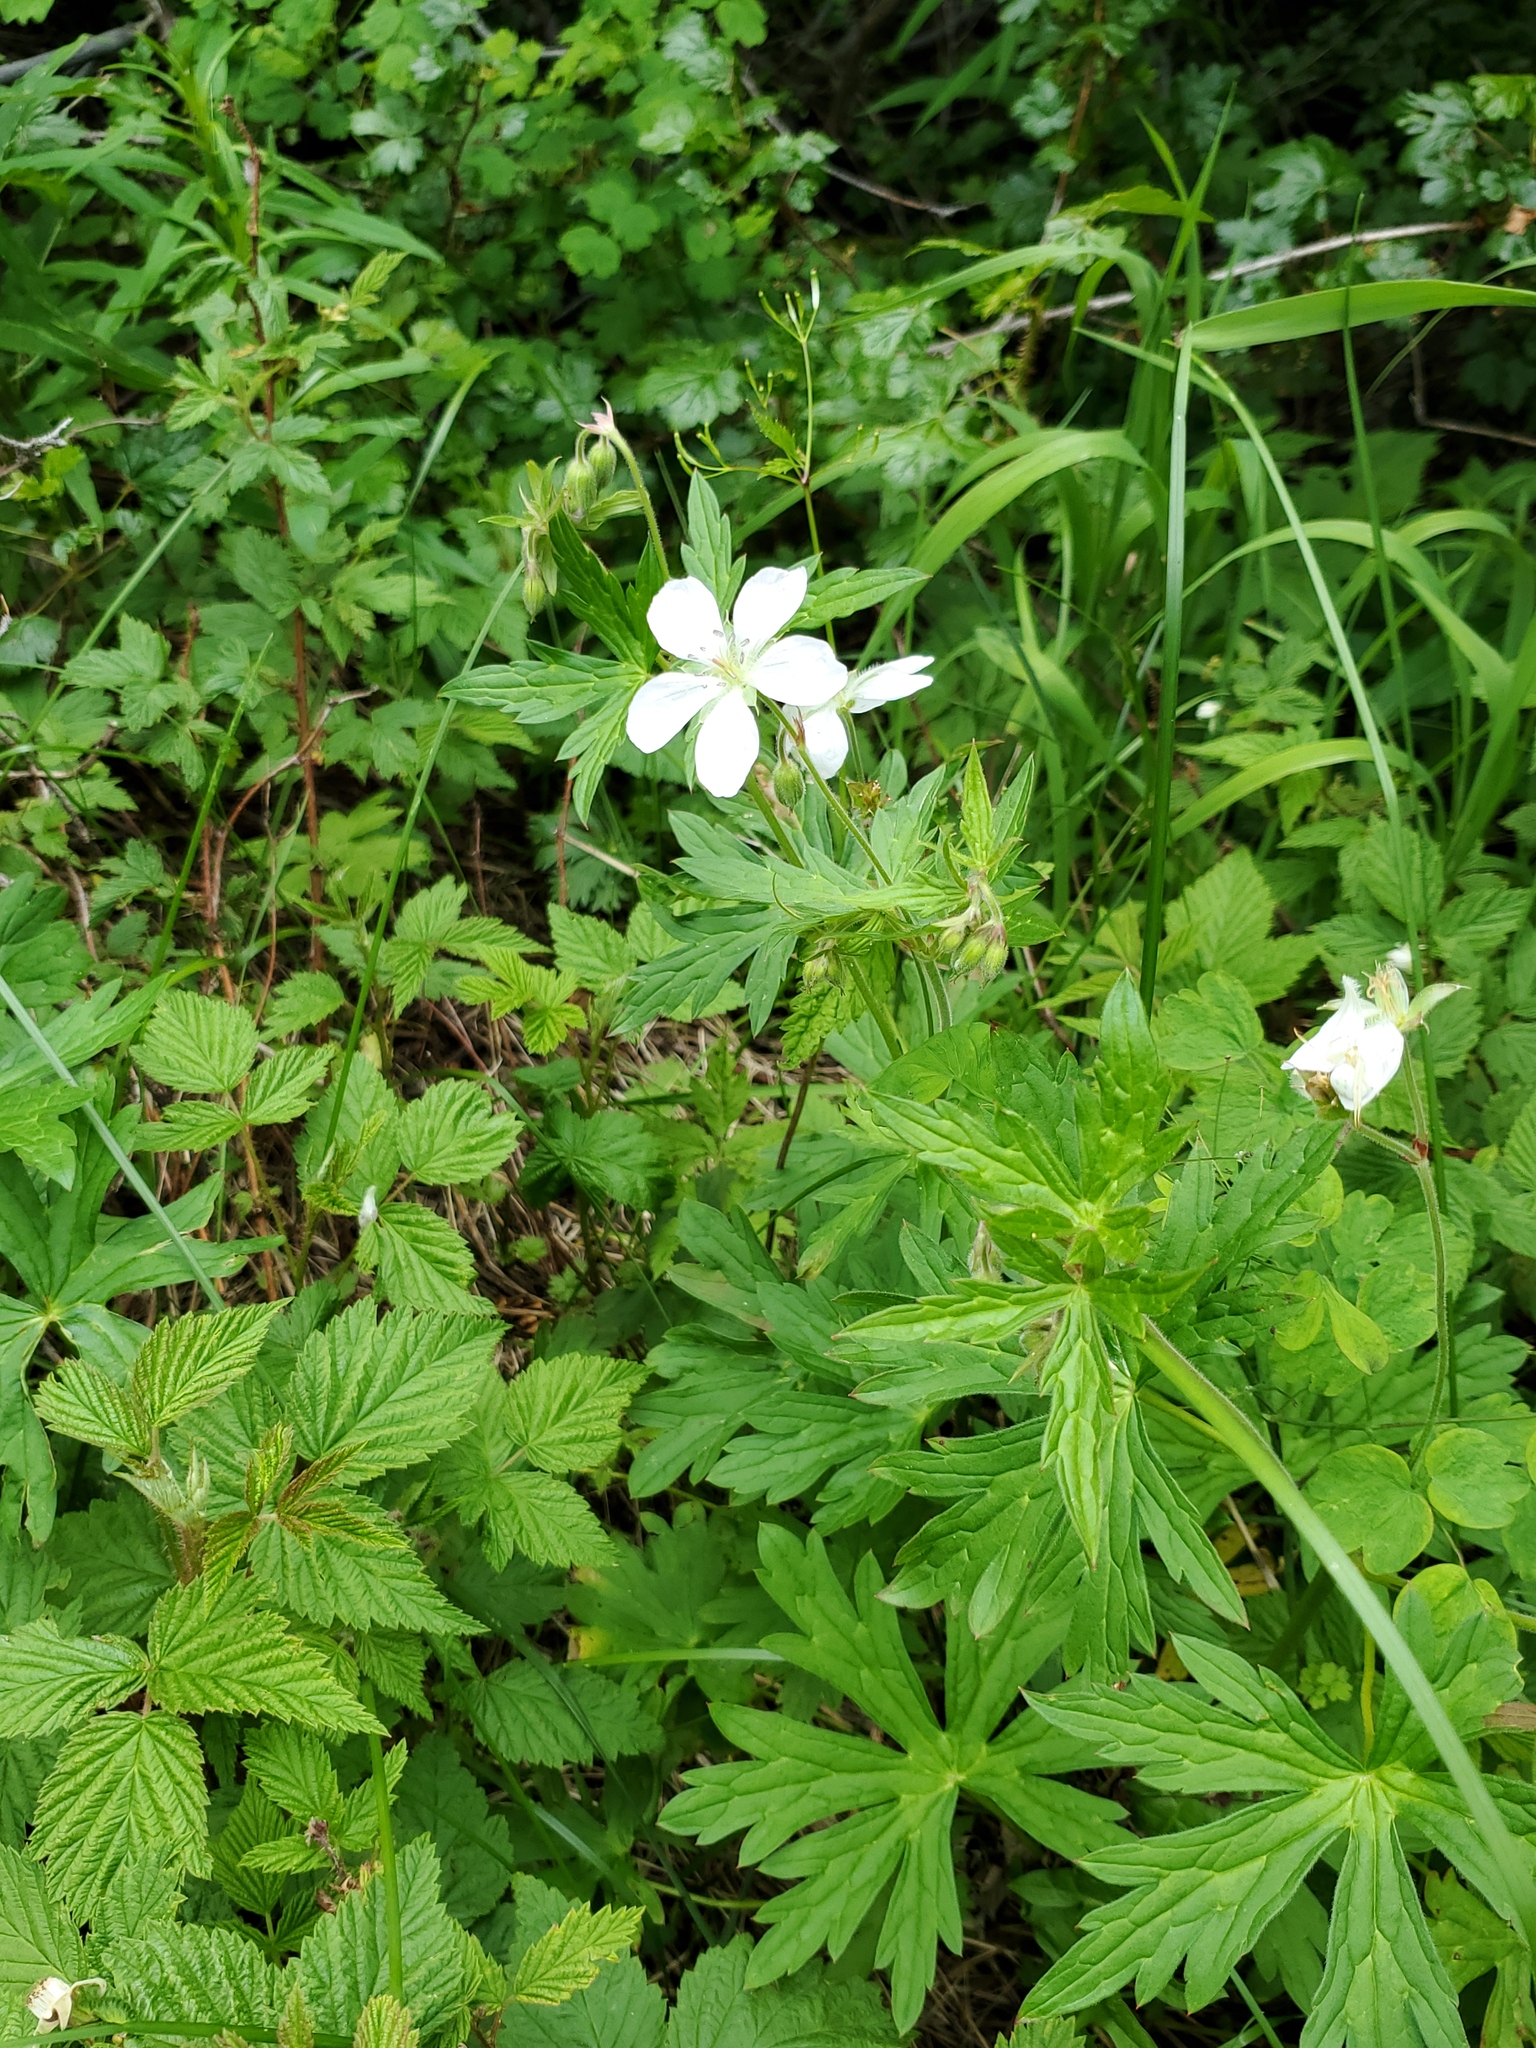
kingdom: Plantae
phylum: Tracheophyta
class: Magnoliopsida
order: Geraniales
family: Geraniaceae
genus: Geranium
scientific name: Geranium richardsonii
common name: Richardson's crane's-bill
